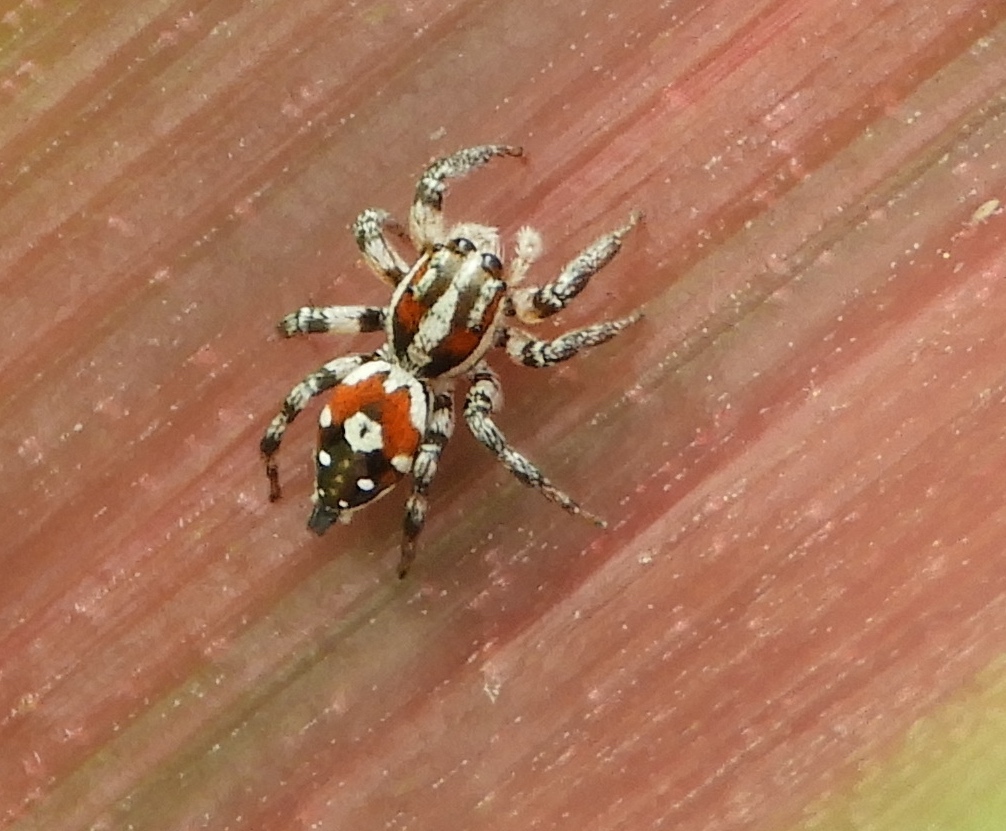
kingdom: Animalia
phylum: Arthropoda
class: Arachnida
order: Araneae
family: Salticidae
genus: Nycerella
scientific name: Nycerella delecta
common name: Jumping spiders
